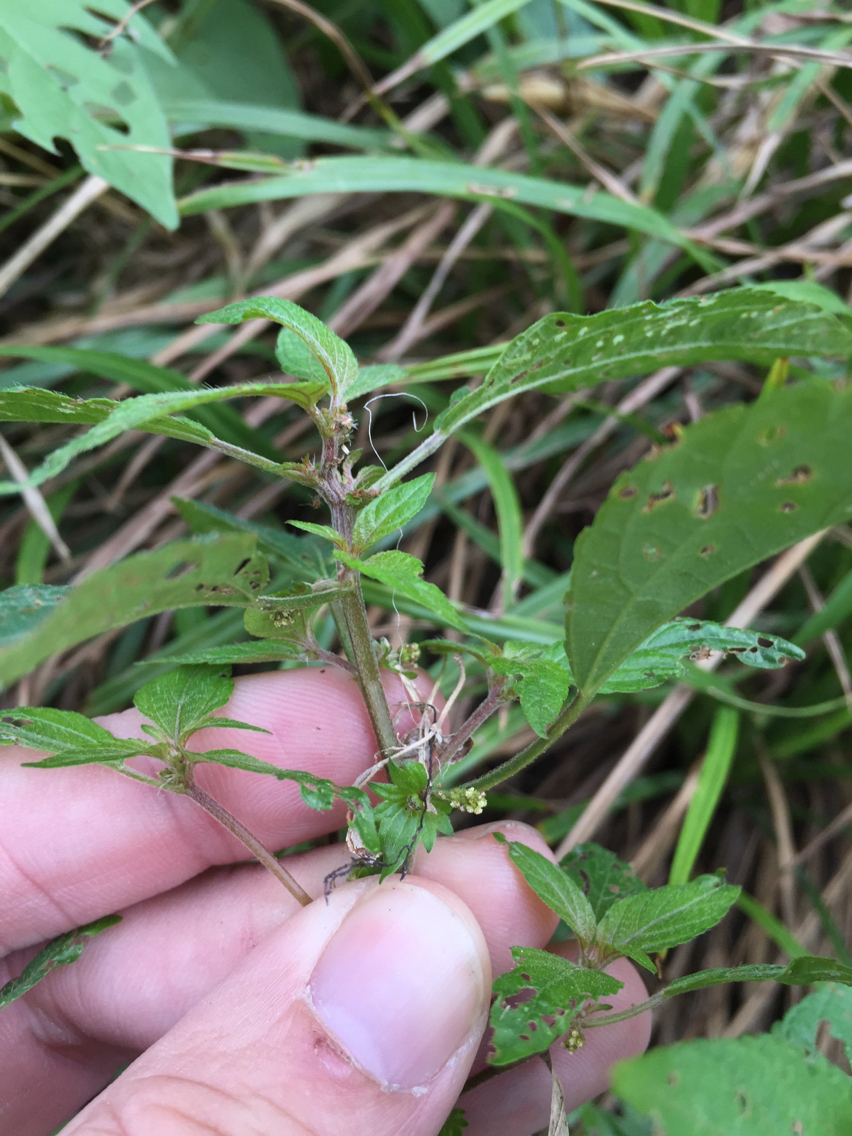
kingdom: Plantae
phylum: Tracheophyta
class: Magnoliopsida
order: Malpighiales
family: Euphorbiaceae
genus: Acalypha
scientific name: Acalypha virginica
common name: Virginia copperleaf
